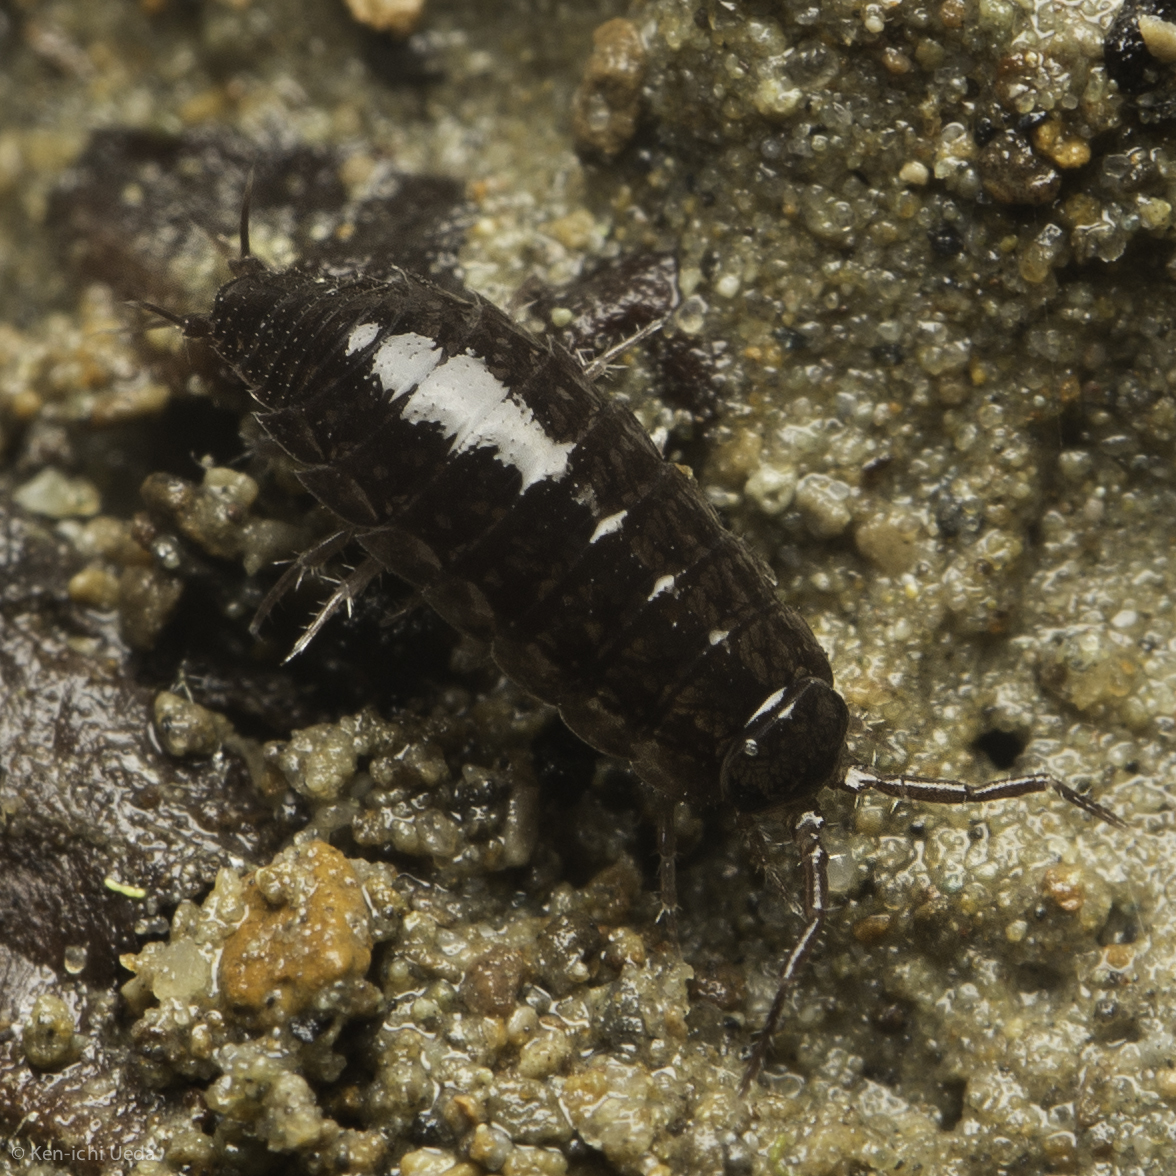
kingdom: Animalia
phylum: Arthropoda
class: Malacostraca
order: Isopoda
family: Ligiidae
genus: Ligidium
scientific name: Ligidium gracile
